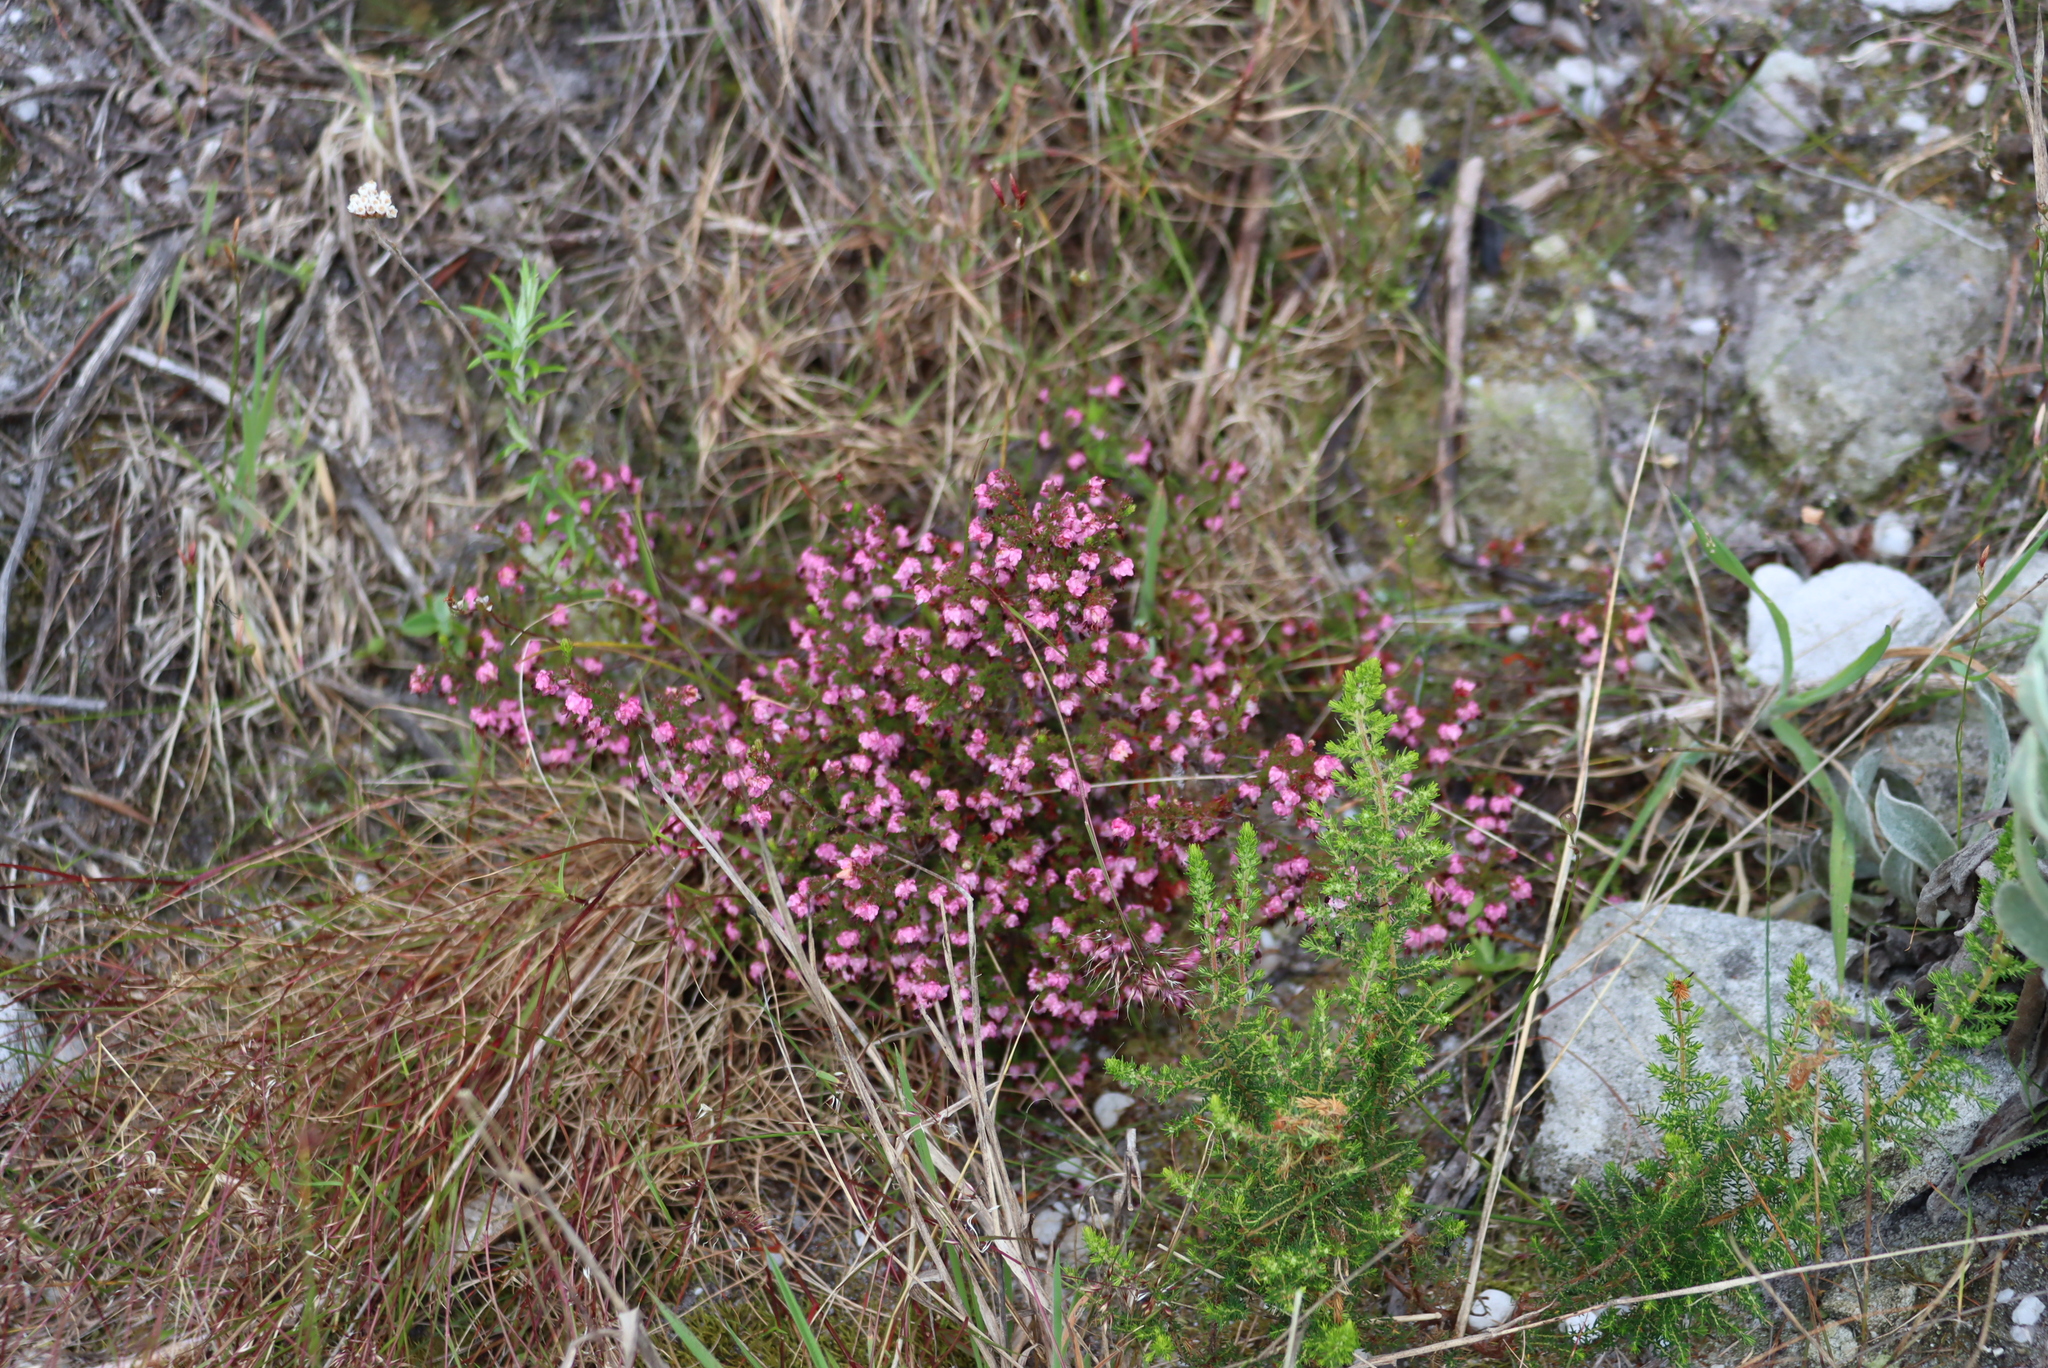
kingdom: Plantae
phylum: Tracheophyta
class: Magnoliopsida
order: Ericales
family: Ericaceae
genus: Erica
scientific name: Erica spumosa
